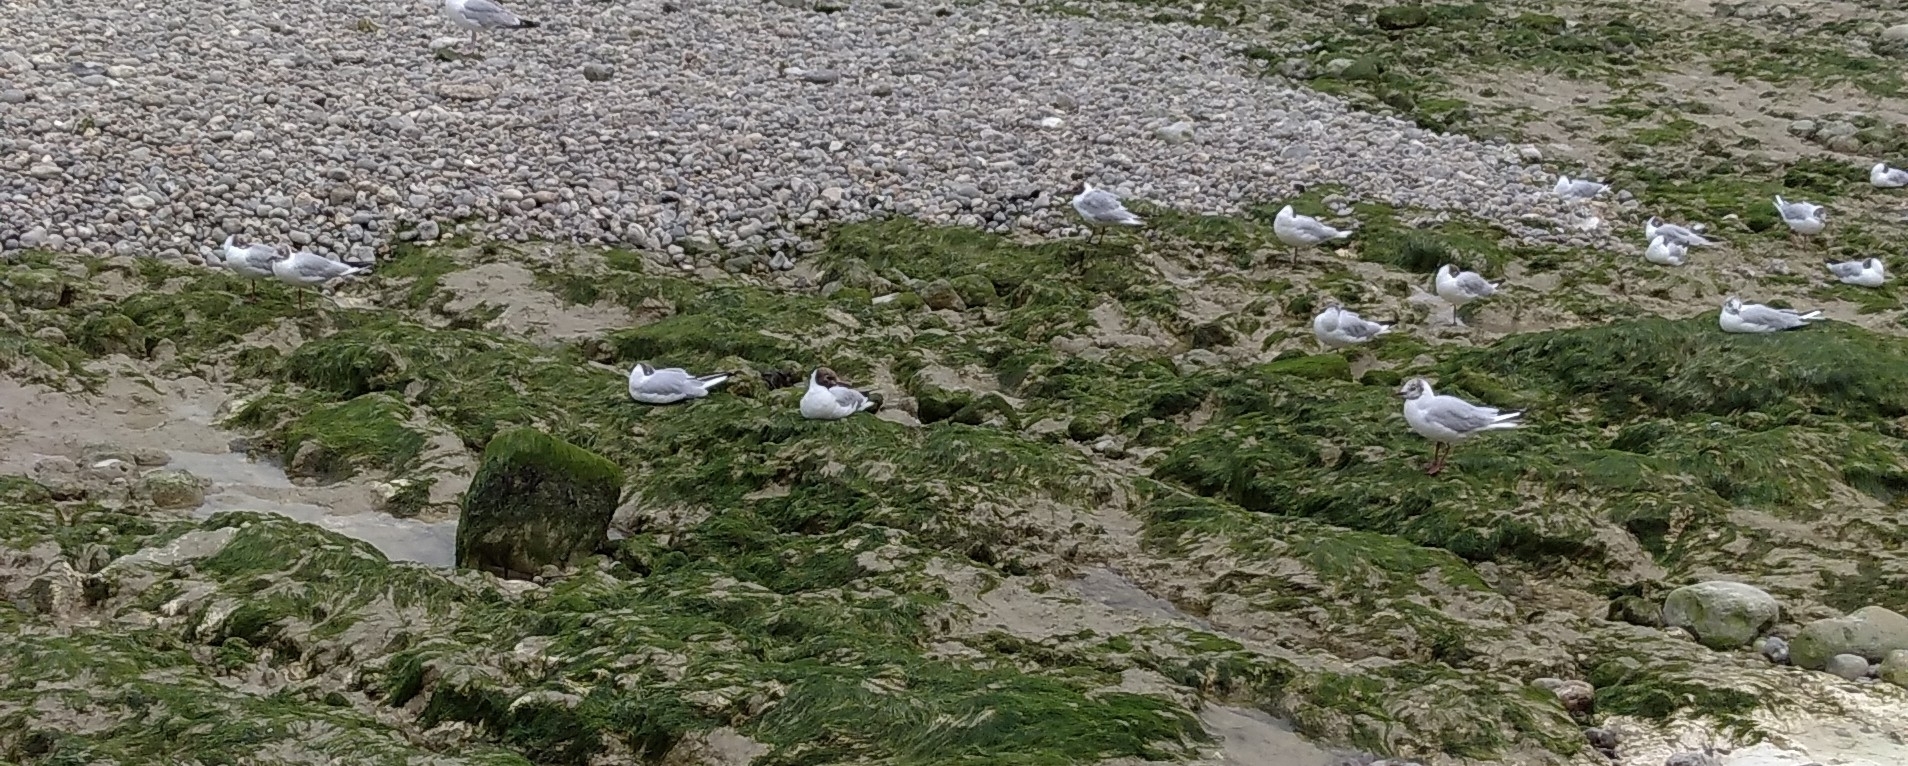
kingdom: Animalia
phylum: Chordata
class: Aves
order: Charadriiformes
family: Laridae
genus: Chroicocephalus
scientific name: Chroicocephalus ridibundus
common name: Black-headed gull
